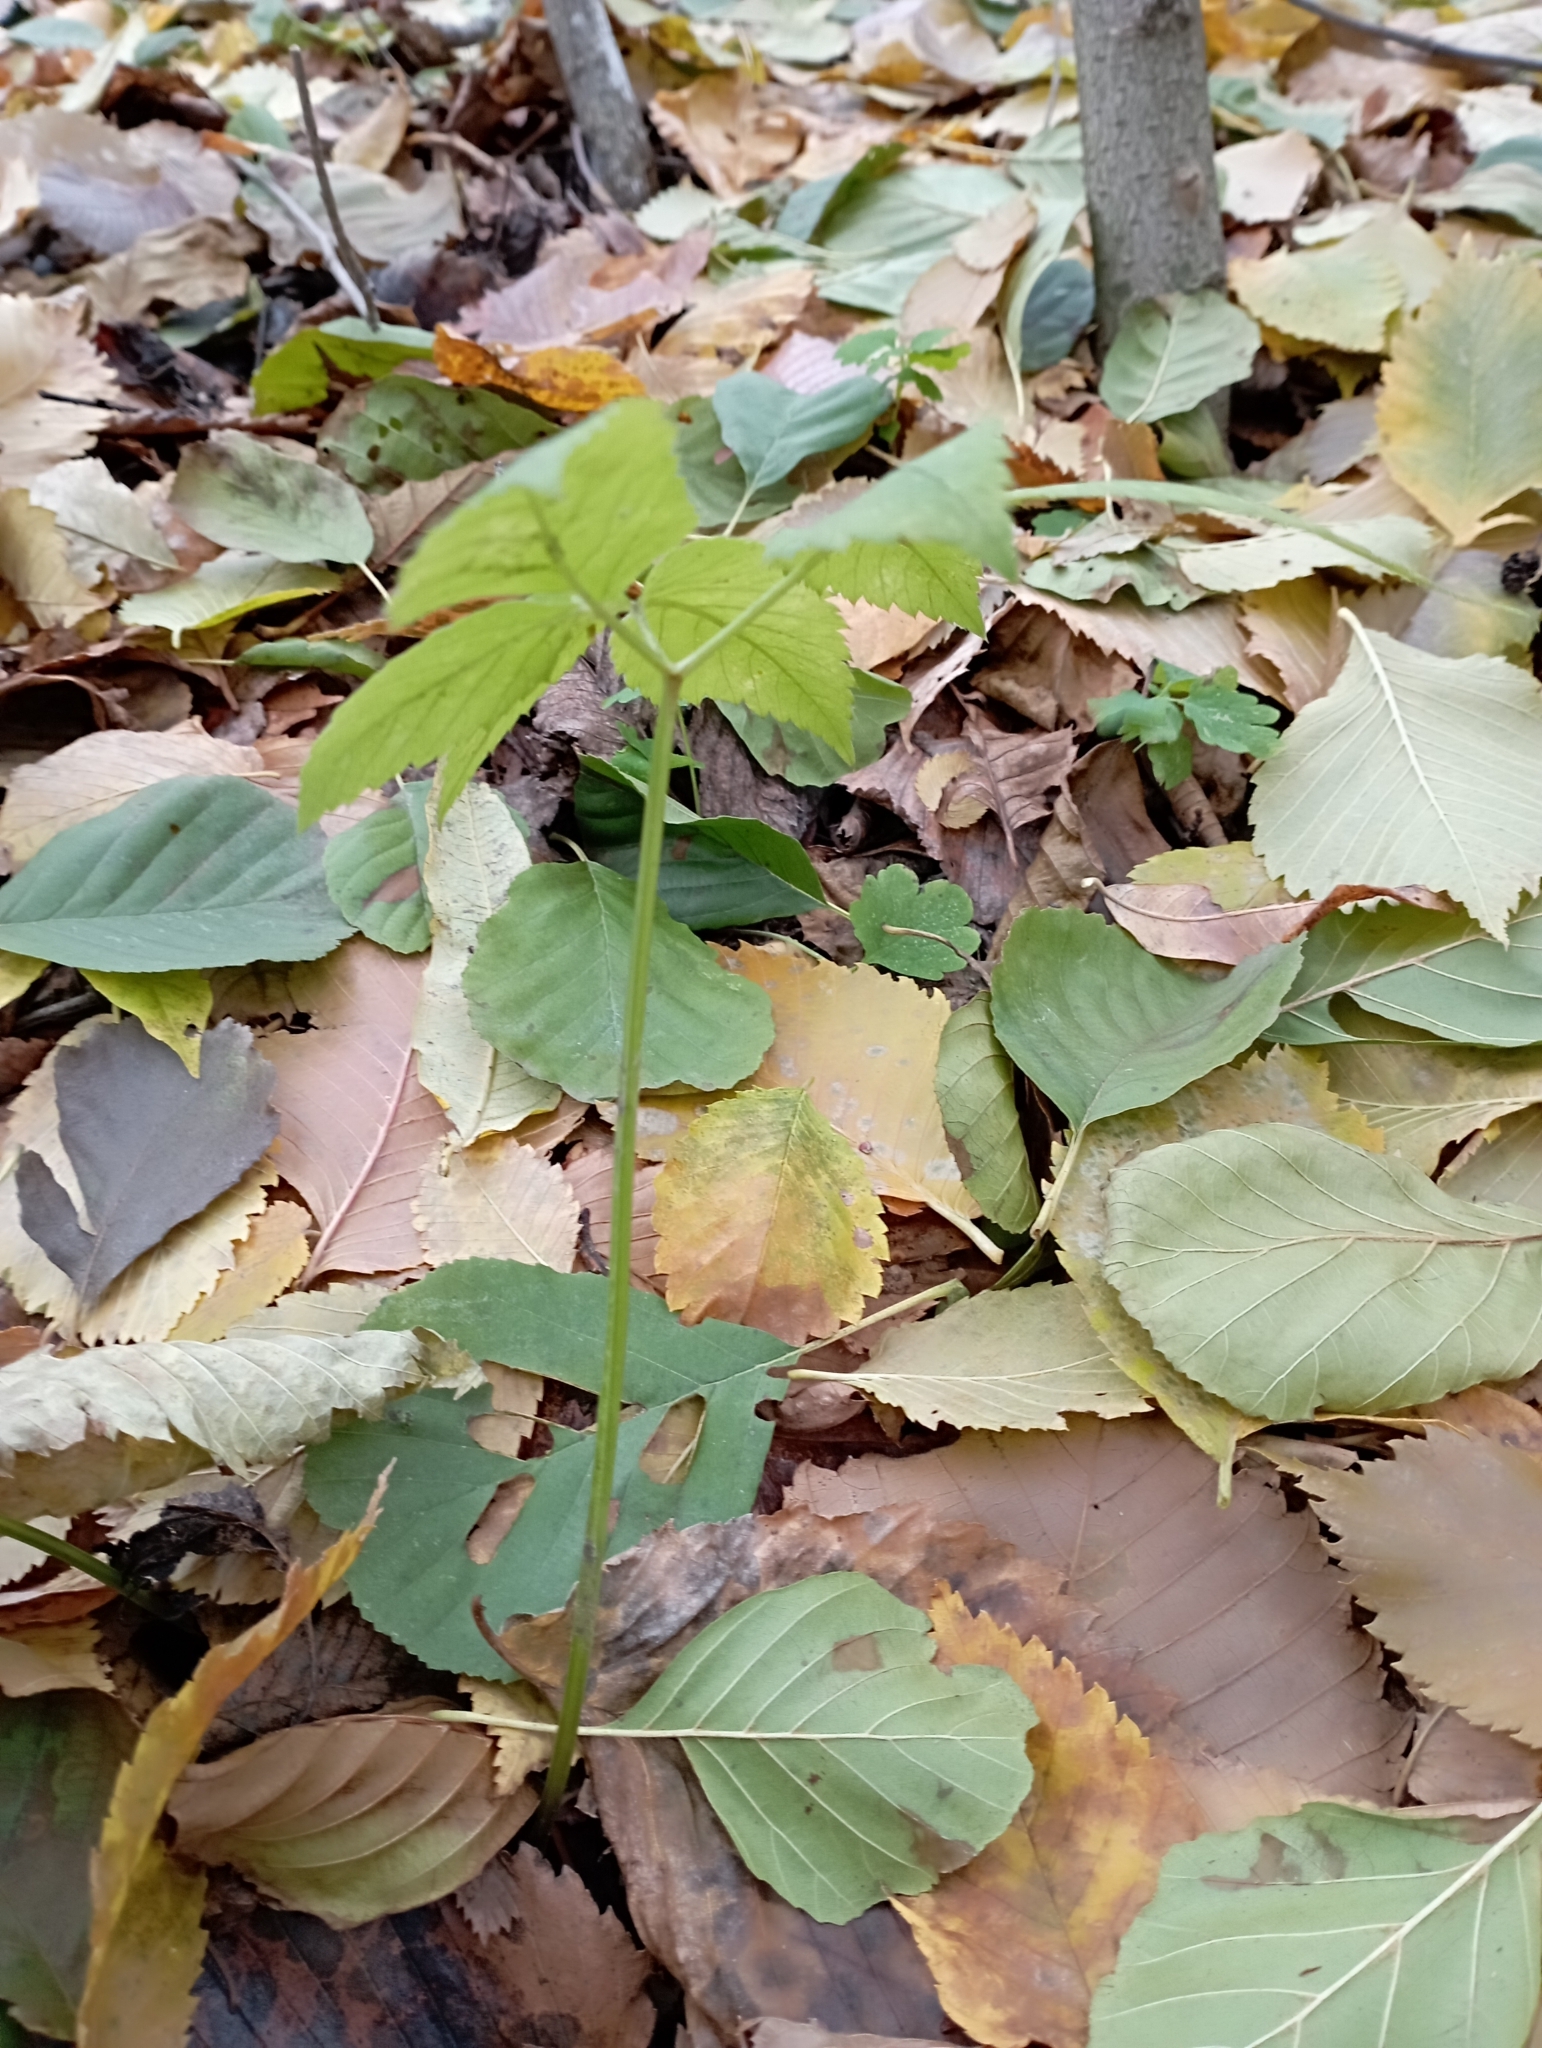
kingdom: Plantae
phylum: Tracheophyta
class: Magnoliopsida
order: Apiales
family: Apiaceae
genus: Aegopodium
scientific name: Aegopodium podagraria
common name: Ground-elder
